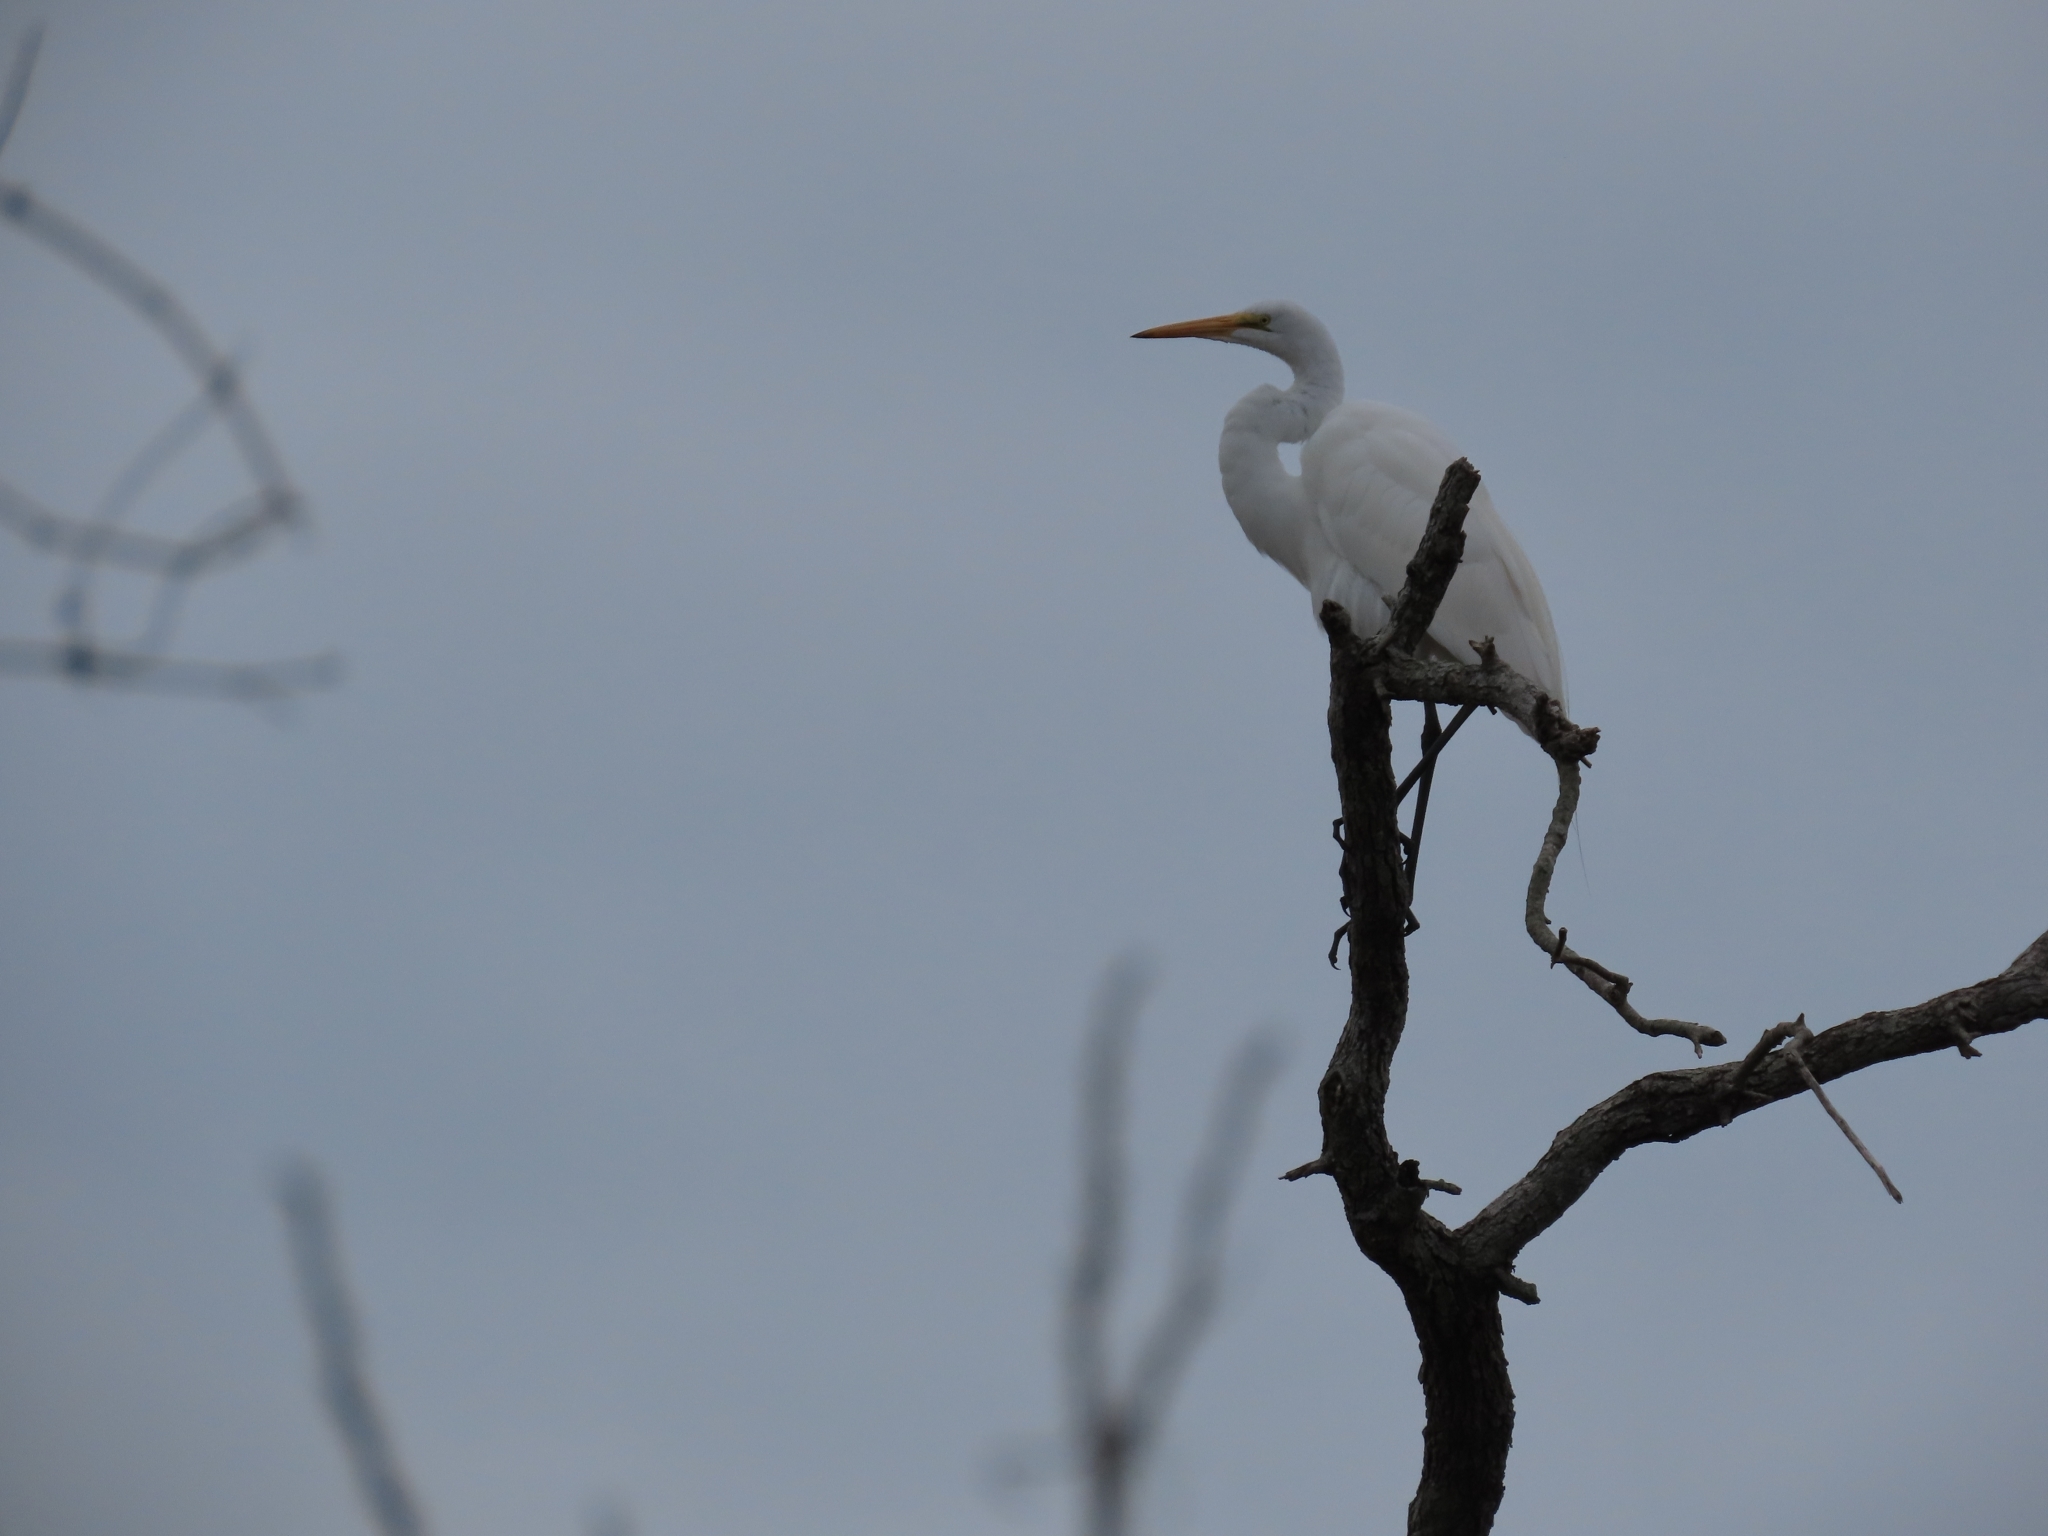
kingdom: Animalia
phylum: Chordata
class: Aves
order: Pelecaniformes
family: Ardeidae
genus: Ardea
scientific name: Ardea alba
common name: Great egret
